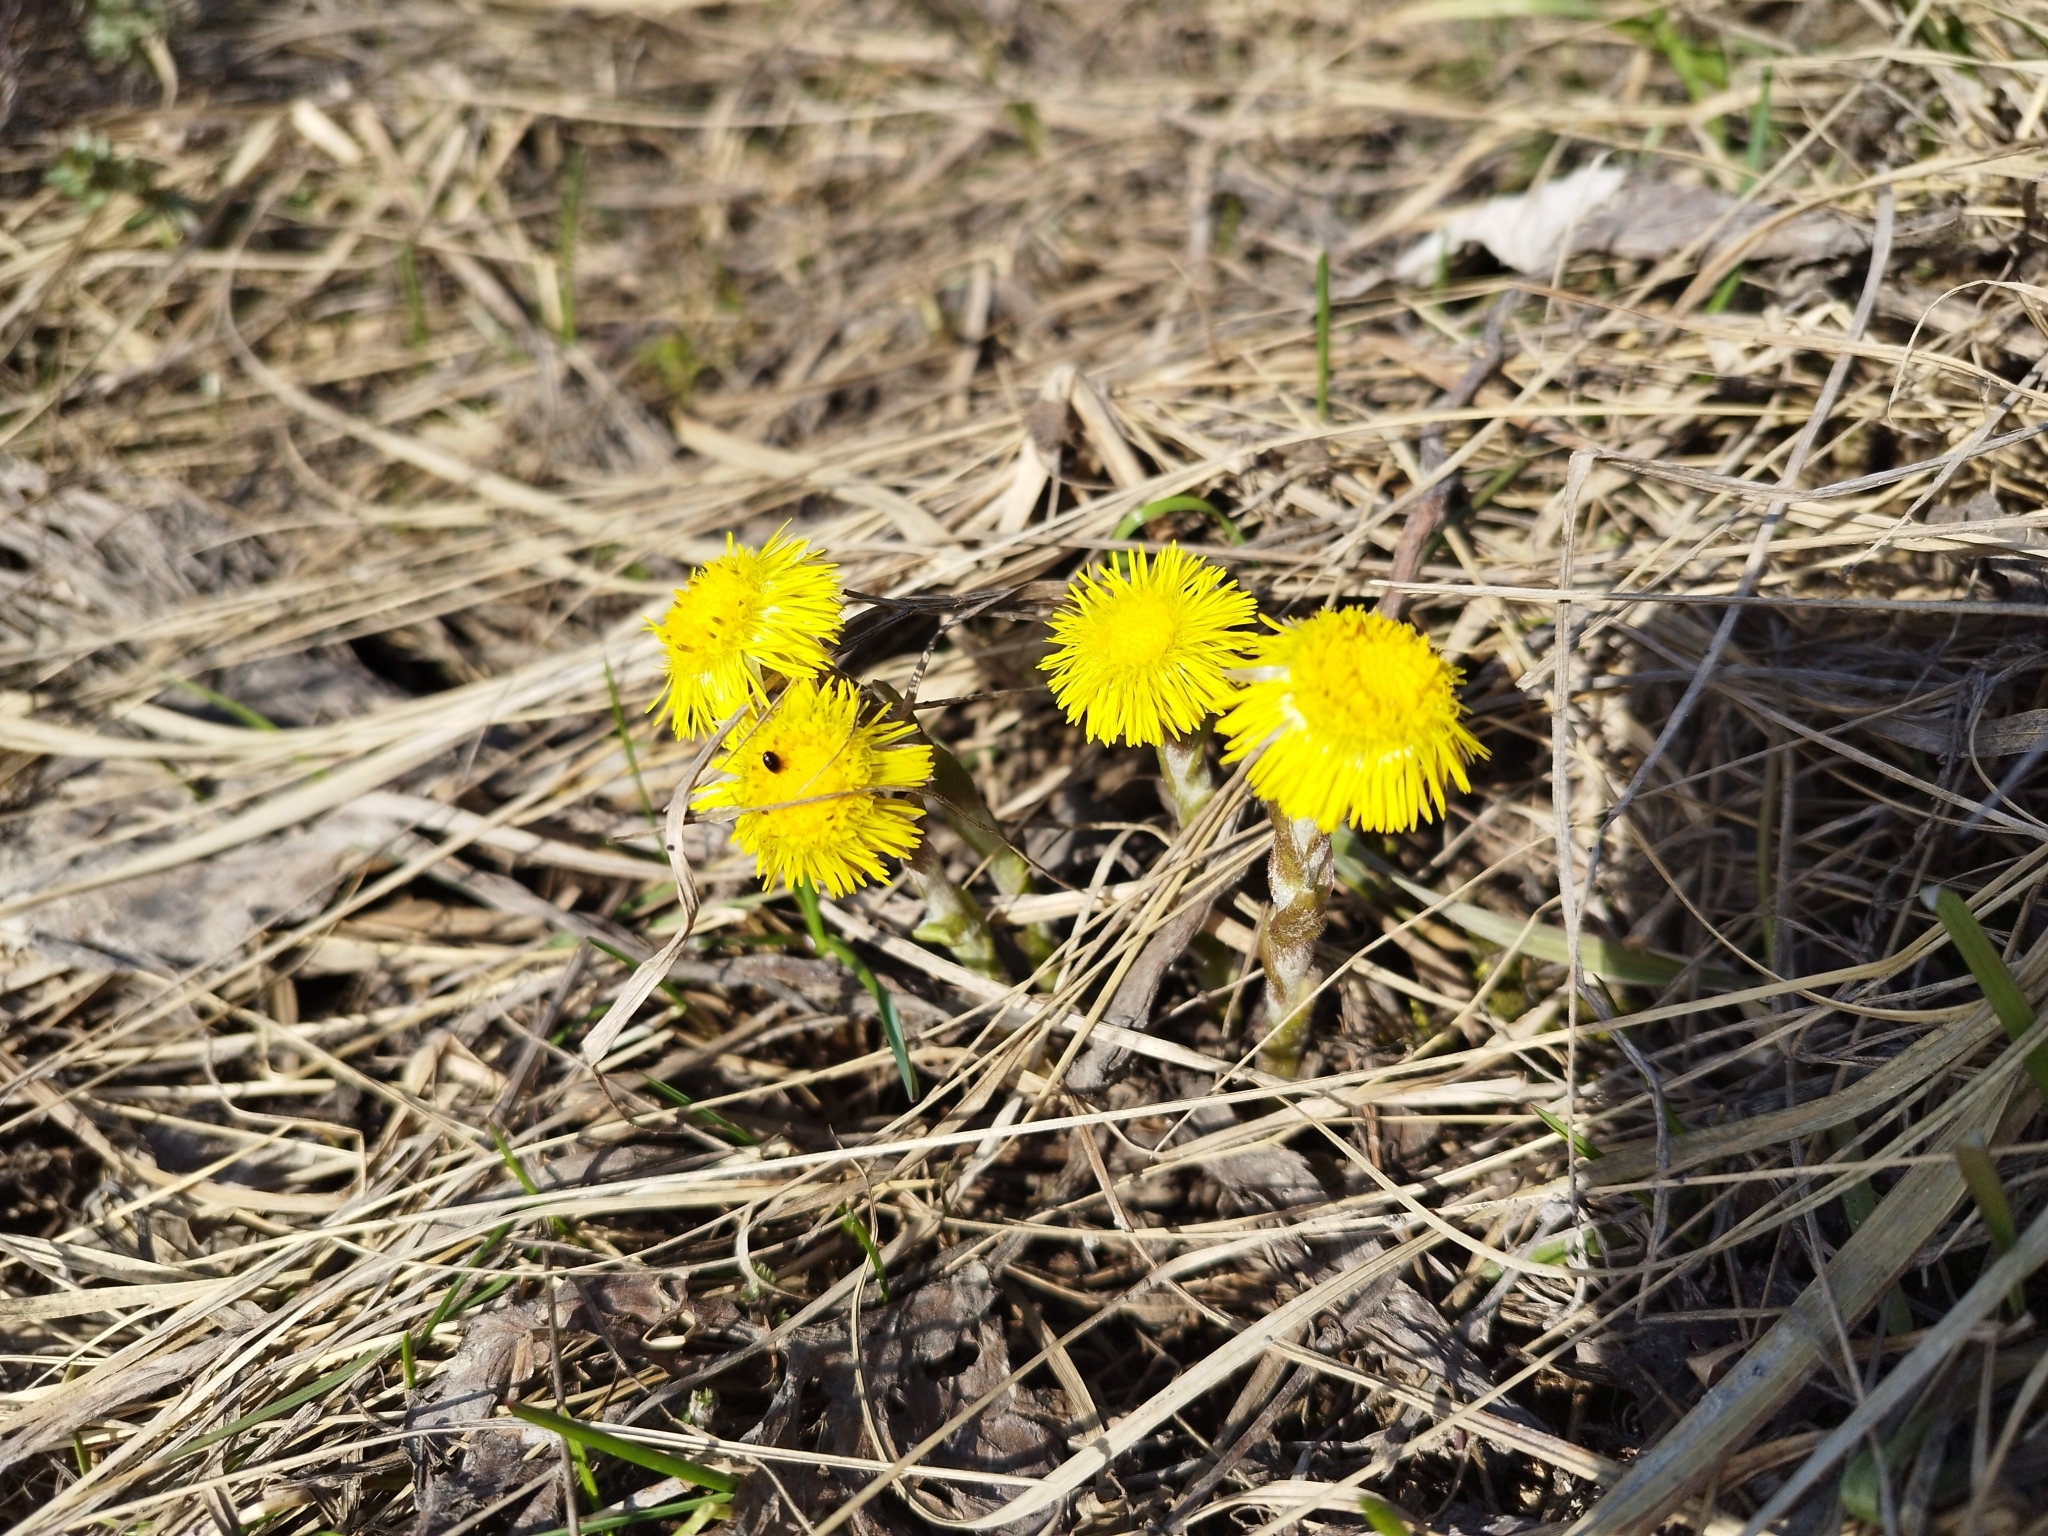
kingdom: Plantae
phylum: Tracheophyta
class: Magnoliopsida
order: Asterales
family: Asteraceae
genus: Tussilago
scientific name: Tussilago farfara
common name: Coltsfoot
